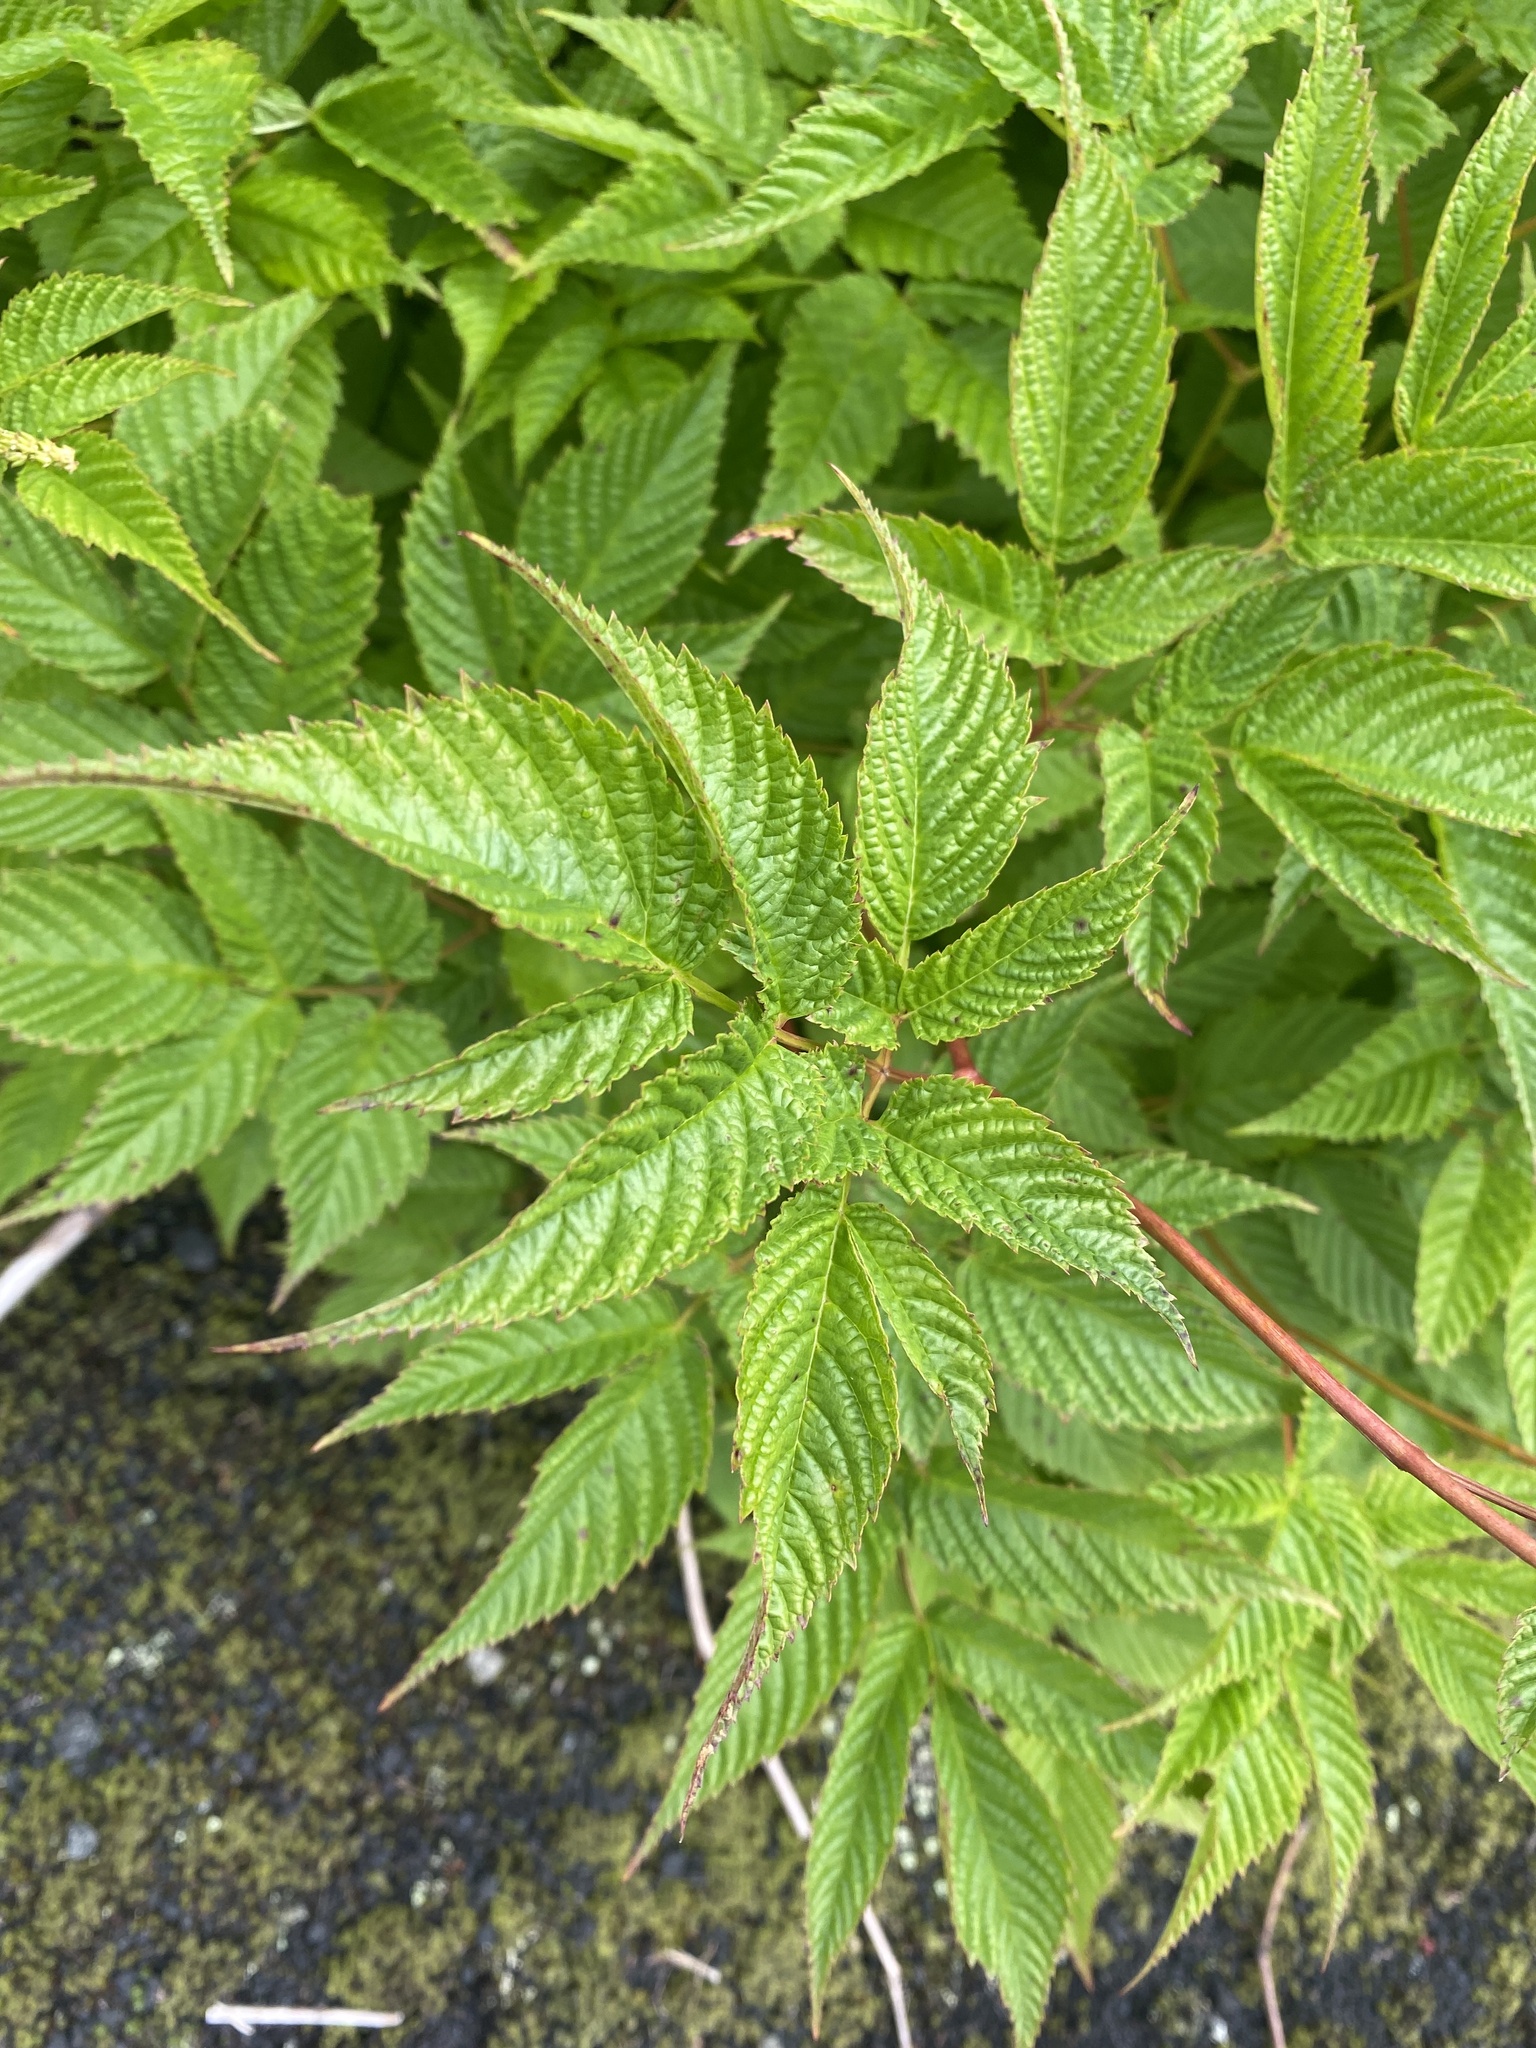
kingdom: Plantae
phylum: Tracheophyta
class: Magnoliopsida
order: Rosales
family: Rosaceae
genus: Aruncus
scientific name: Aruncus dioicus
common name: Buck's-beard
